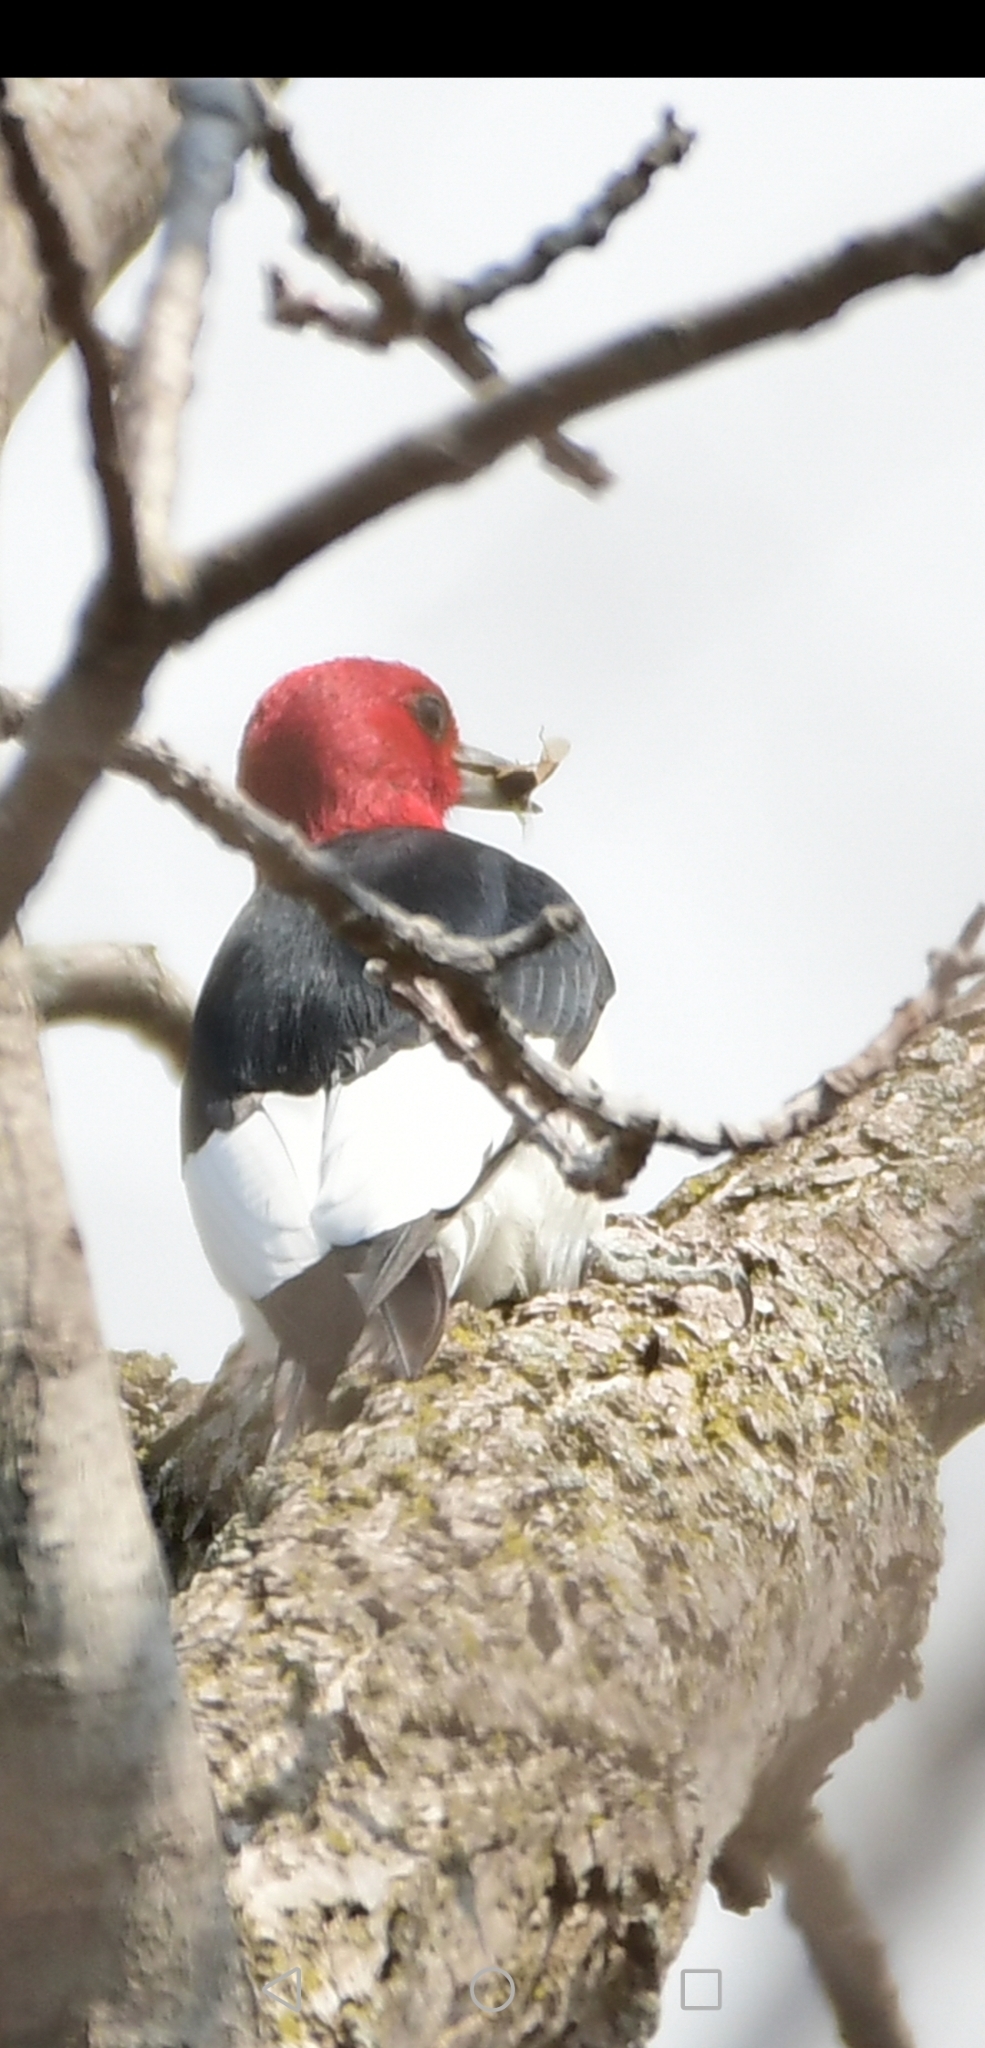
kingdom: Animalia
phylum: Chordata
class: Aves
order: Piciformes
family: Picidae
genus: Melanerpes
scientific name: Melanerpes erythrocephalus
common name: Red-headed woodpecker
